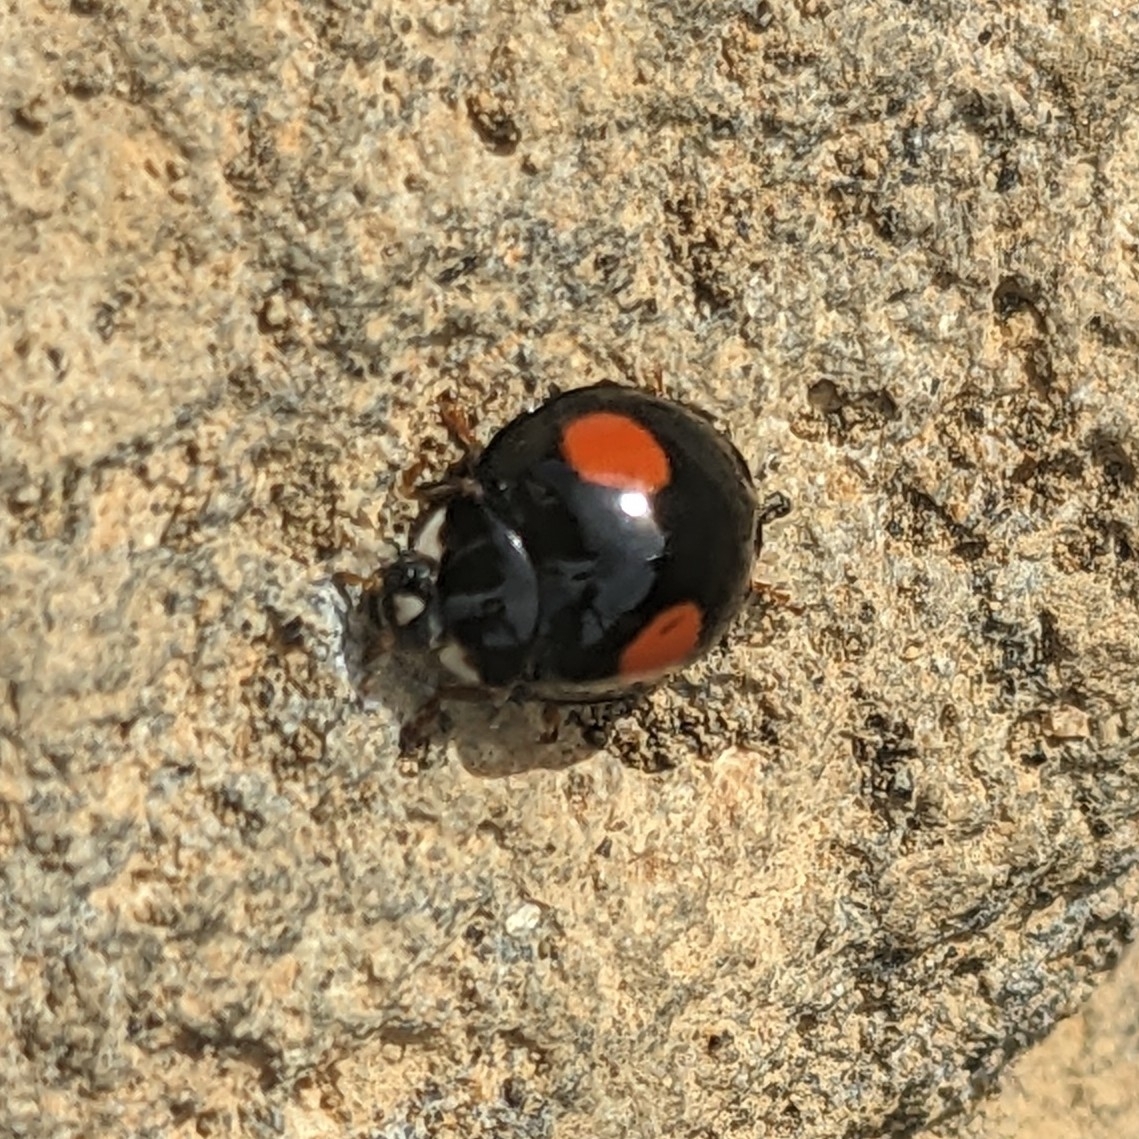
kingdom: Animalia
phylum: Arthropoda
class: Insecta
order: Coleoptera
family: Coccinellidae
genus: Harmonia
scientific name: Harmonia axyridis
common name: Harlequin ladybird
